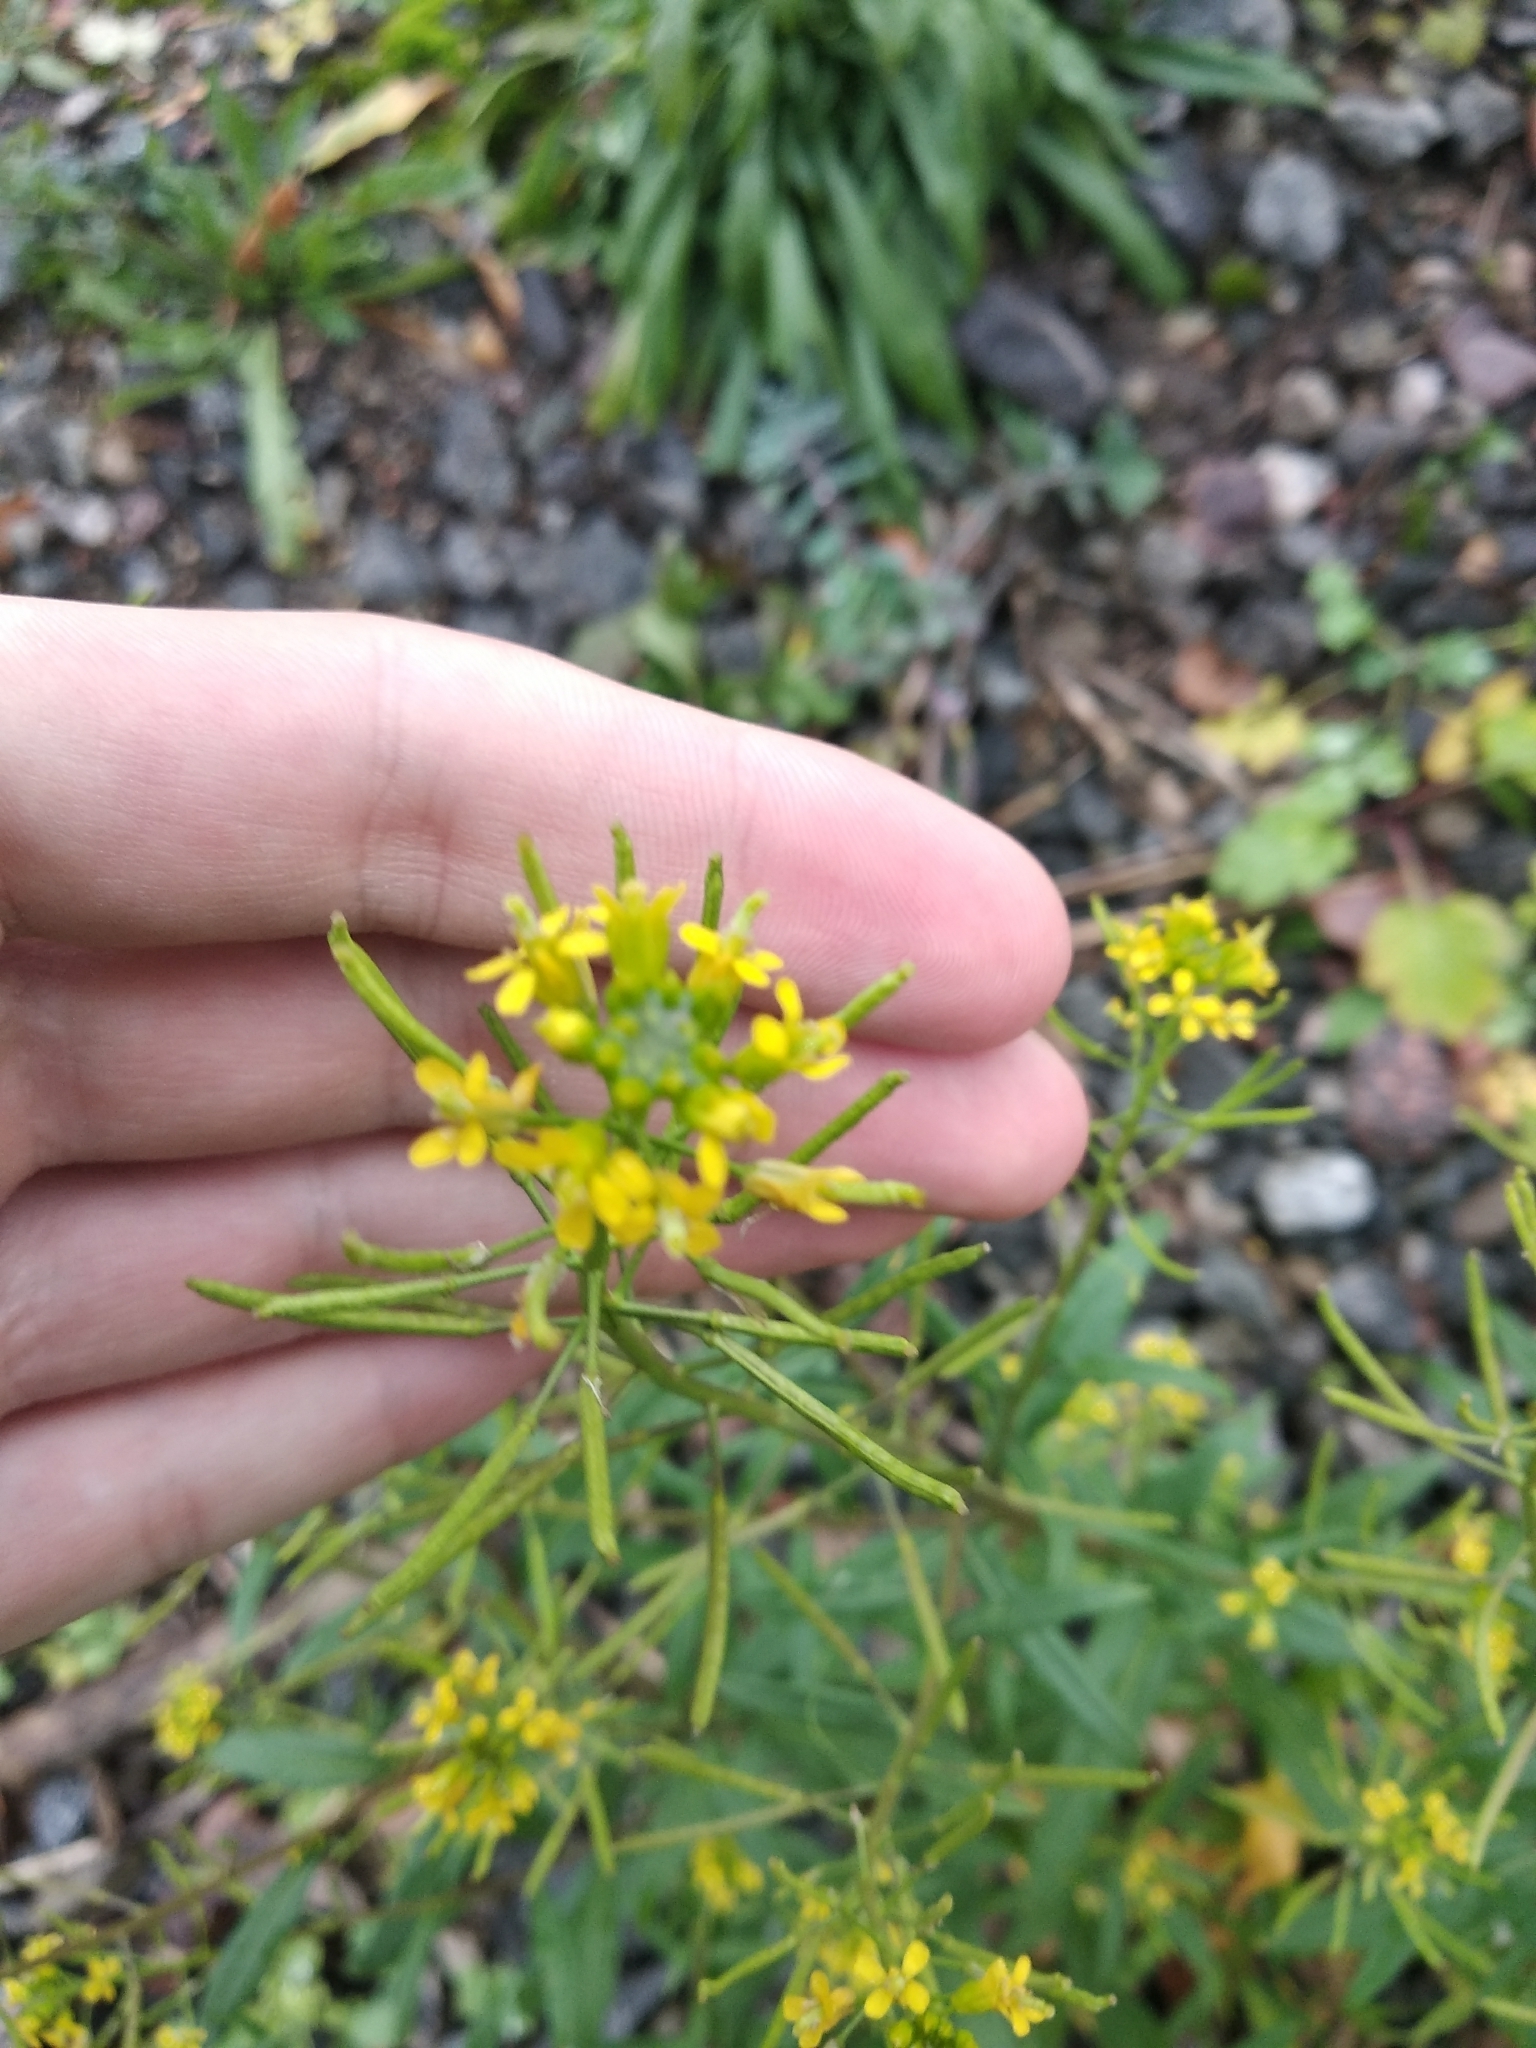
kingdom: Plantae
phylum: Tracheophyta
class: Magnoliopsida
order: Brassicales
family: Brassicaceae
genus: Erysimum
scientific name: Erysimum cheiranthoides
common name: Treacle mustard
